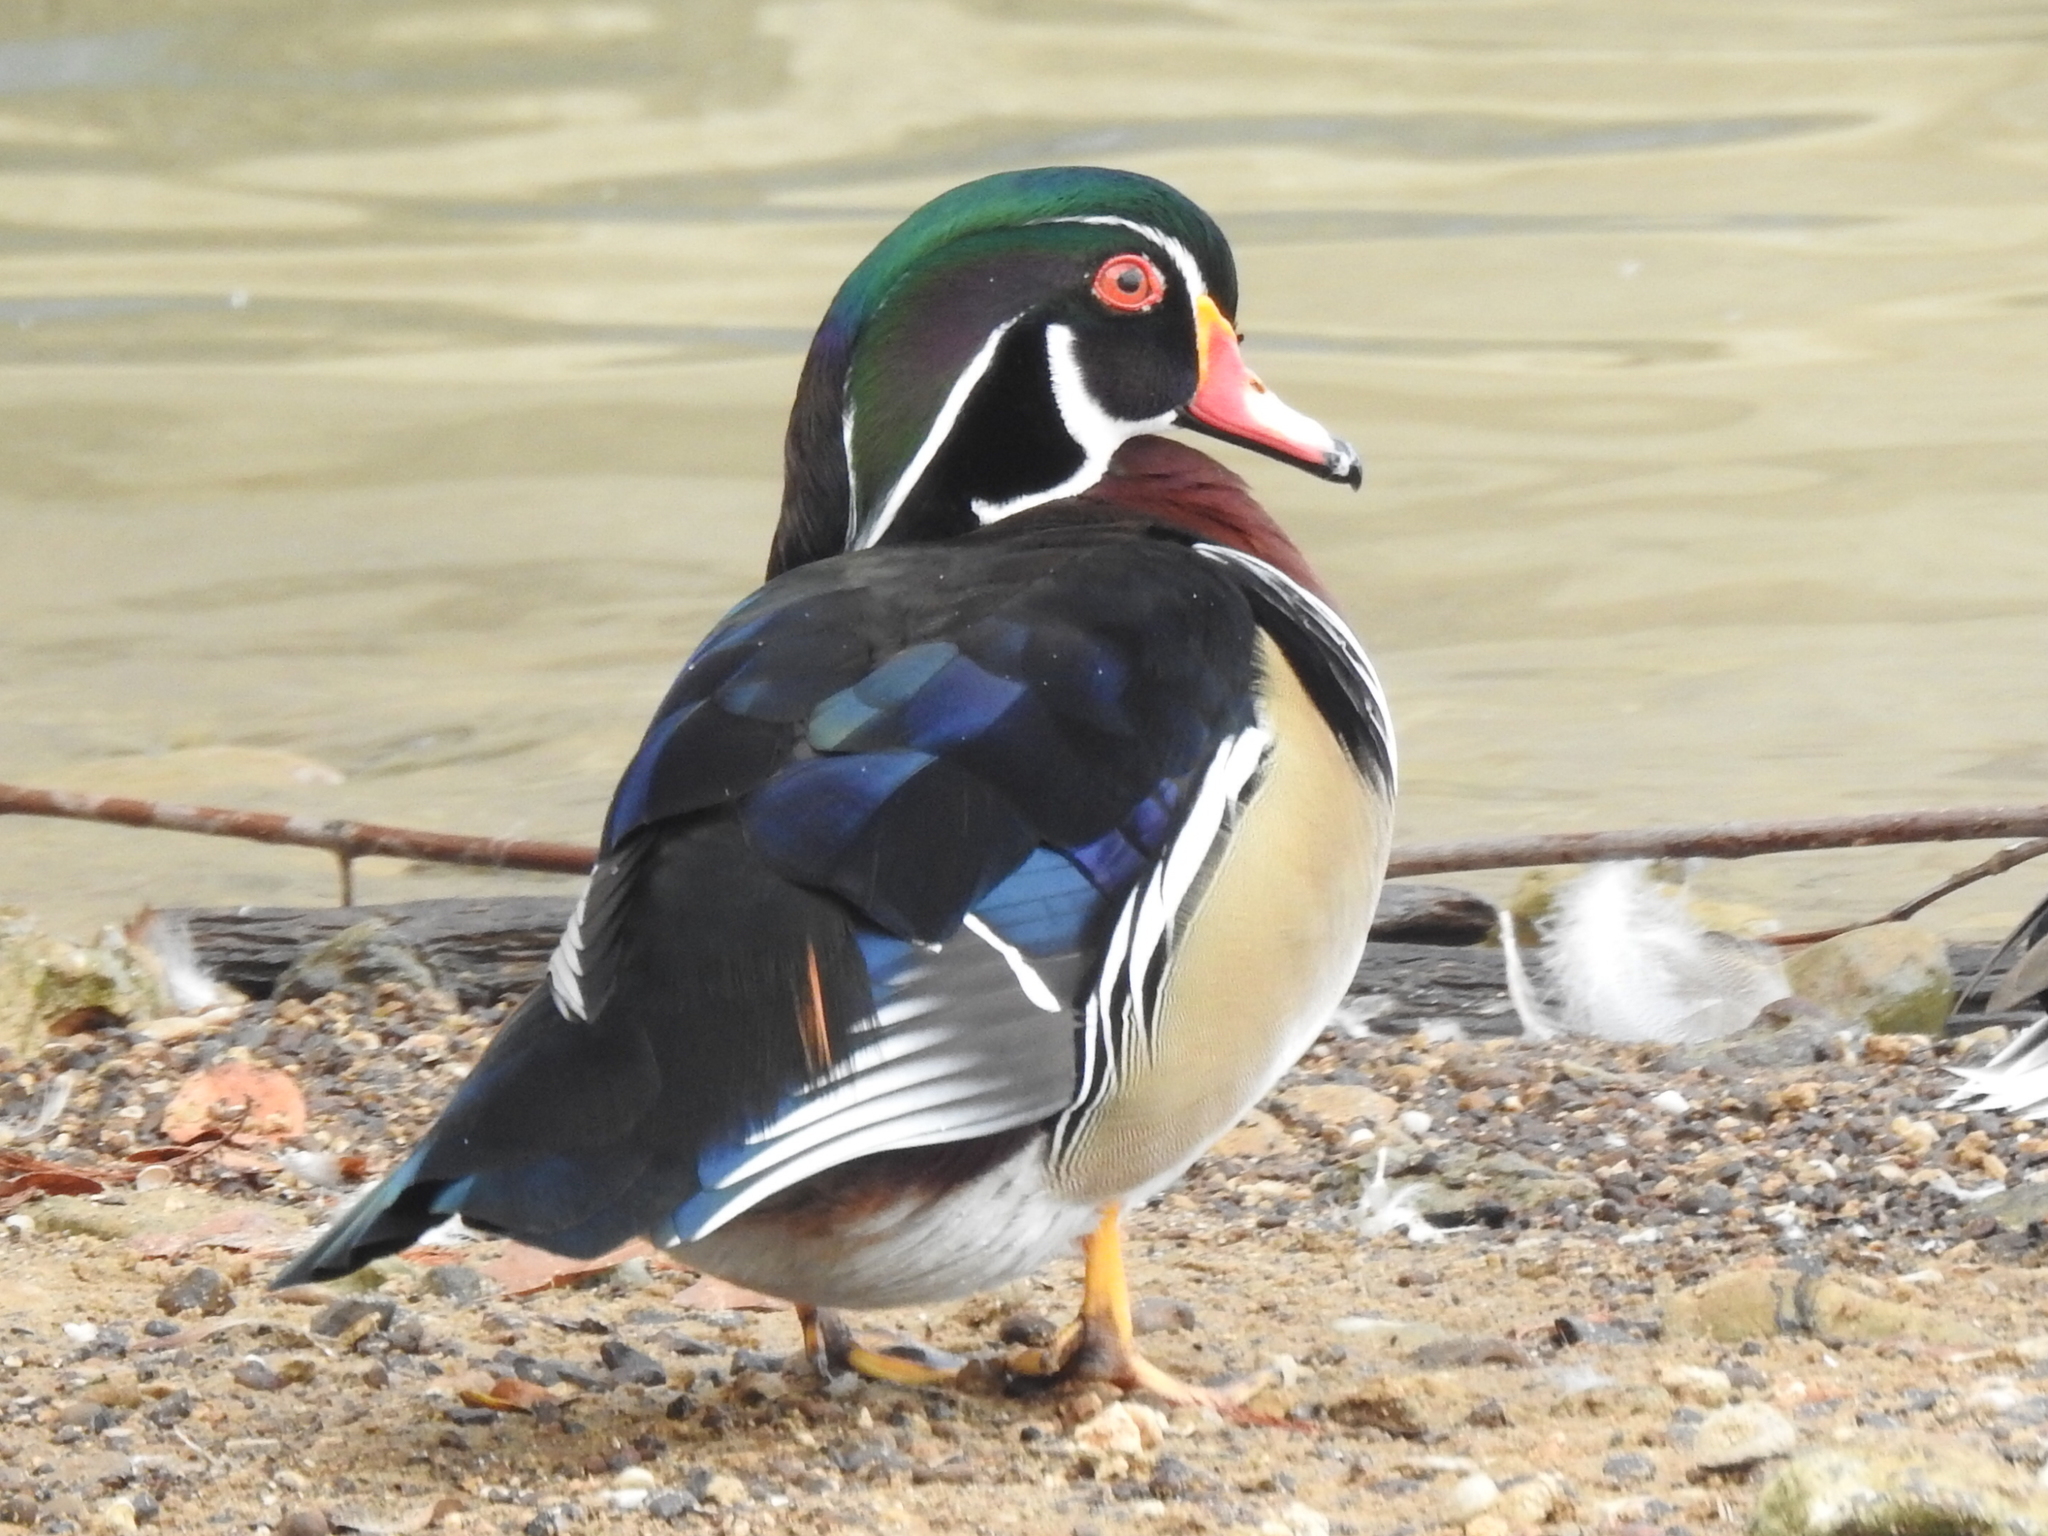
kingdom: Animalia
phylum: Chordata
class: Aves
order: Anseriformes
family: Anatidae
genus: Aix
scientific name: Aix sponsa
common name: Wood duck
